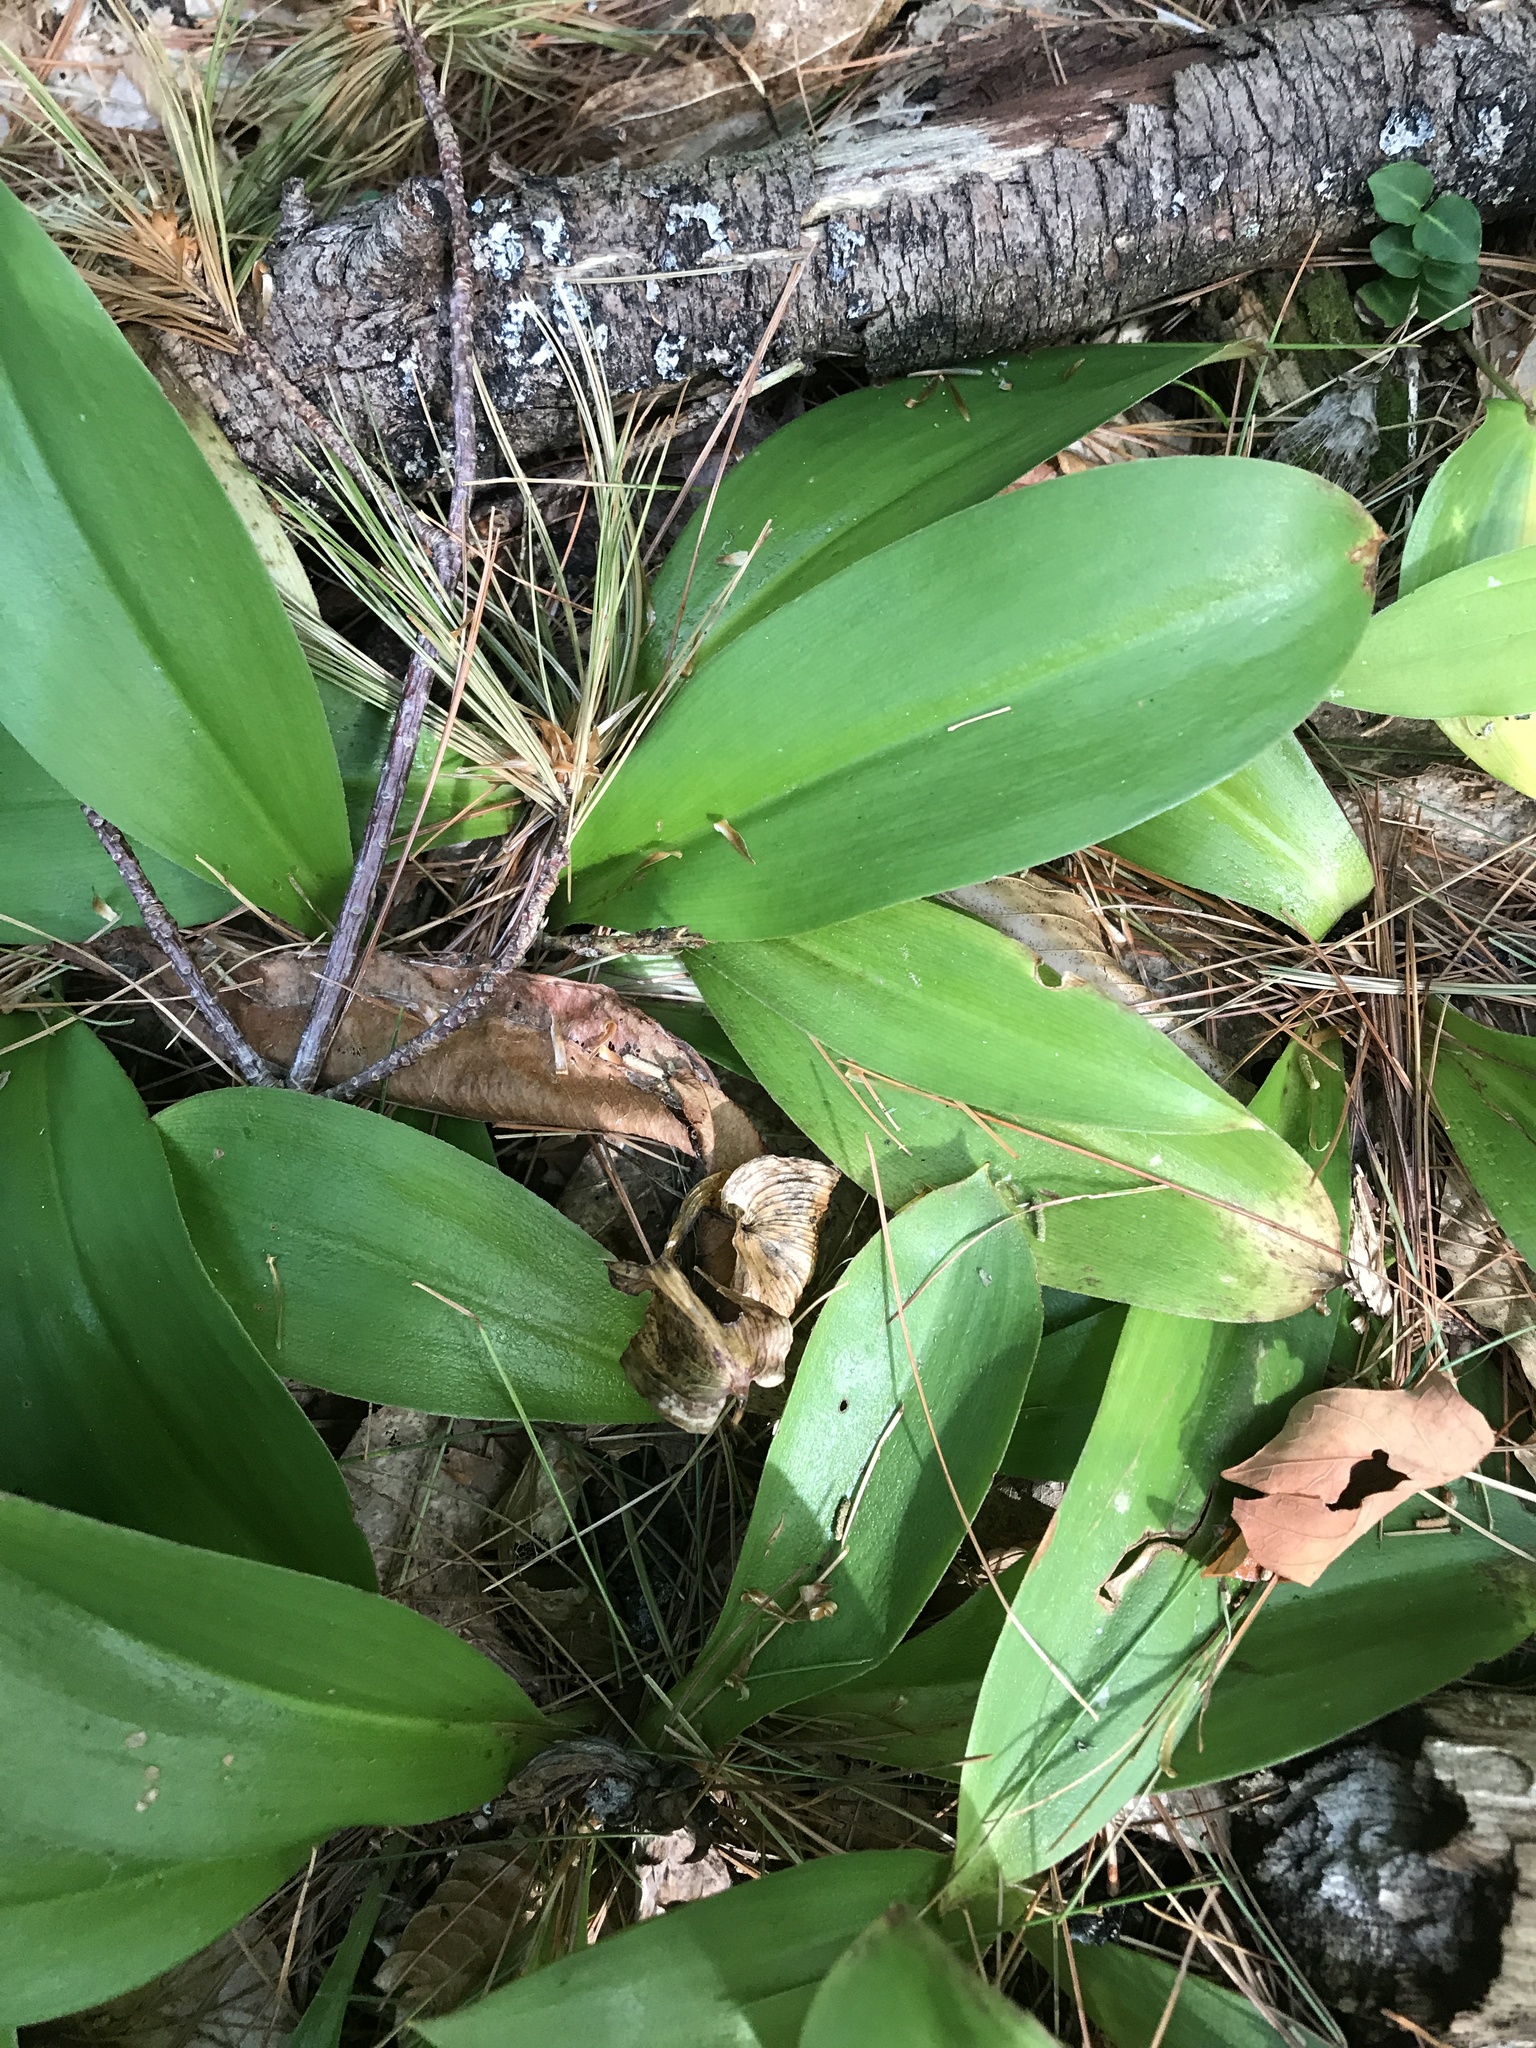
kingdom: Plantae
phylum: Tracheophyta
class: Liliopsida
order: Liliales
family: Liliaceae
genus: Clintonia
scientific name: Clintonia borealis
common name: Yellow clintonia
